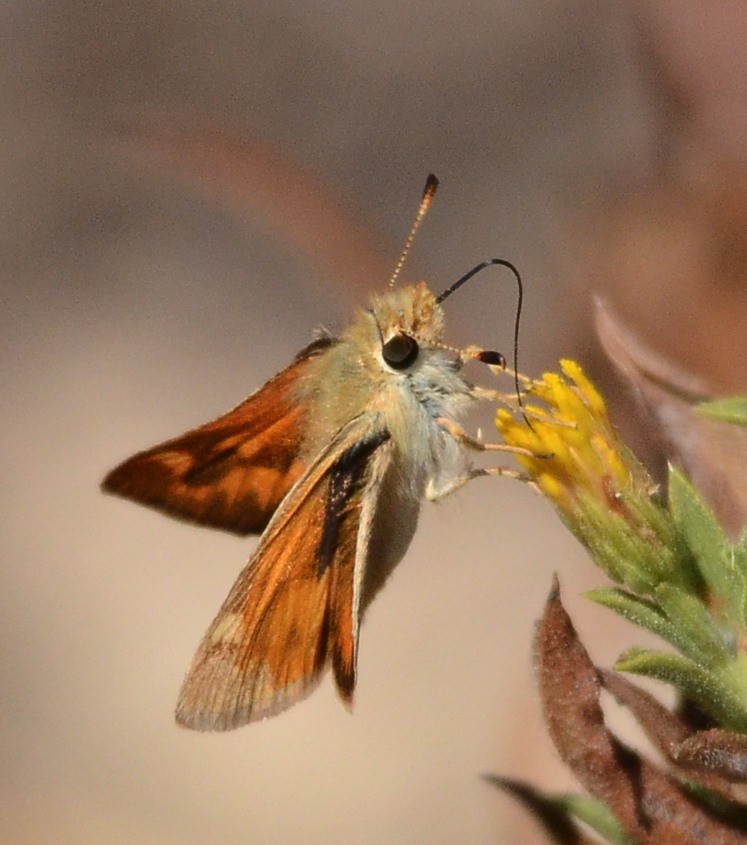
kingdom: Animalia
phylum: Arthropoda
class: Insecta
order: Lepidoptera
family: Hesperiidae
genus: Ochlodes
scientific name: Ochlodes sylvanoides
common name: Woodland skipper
